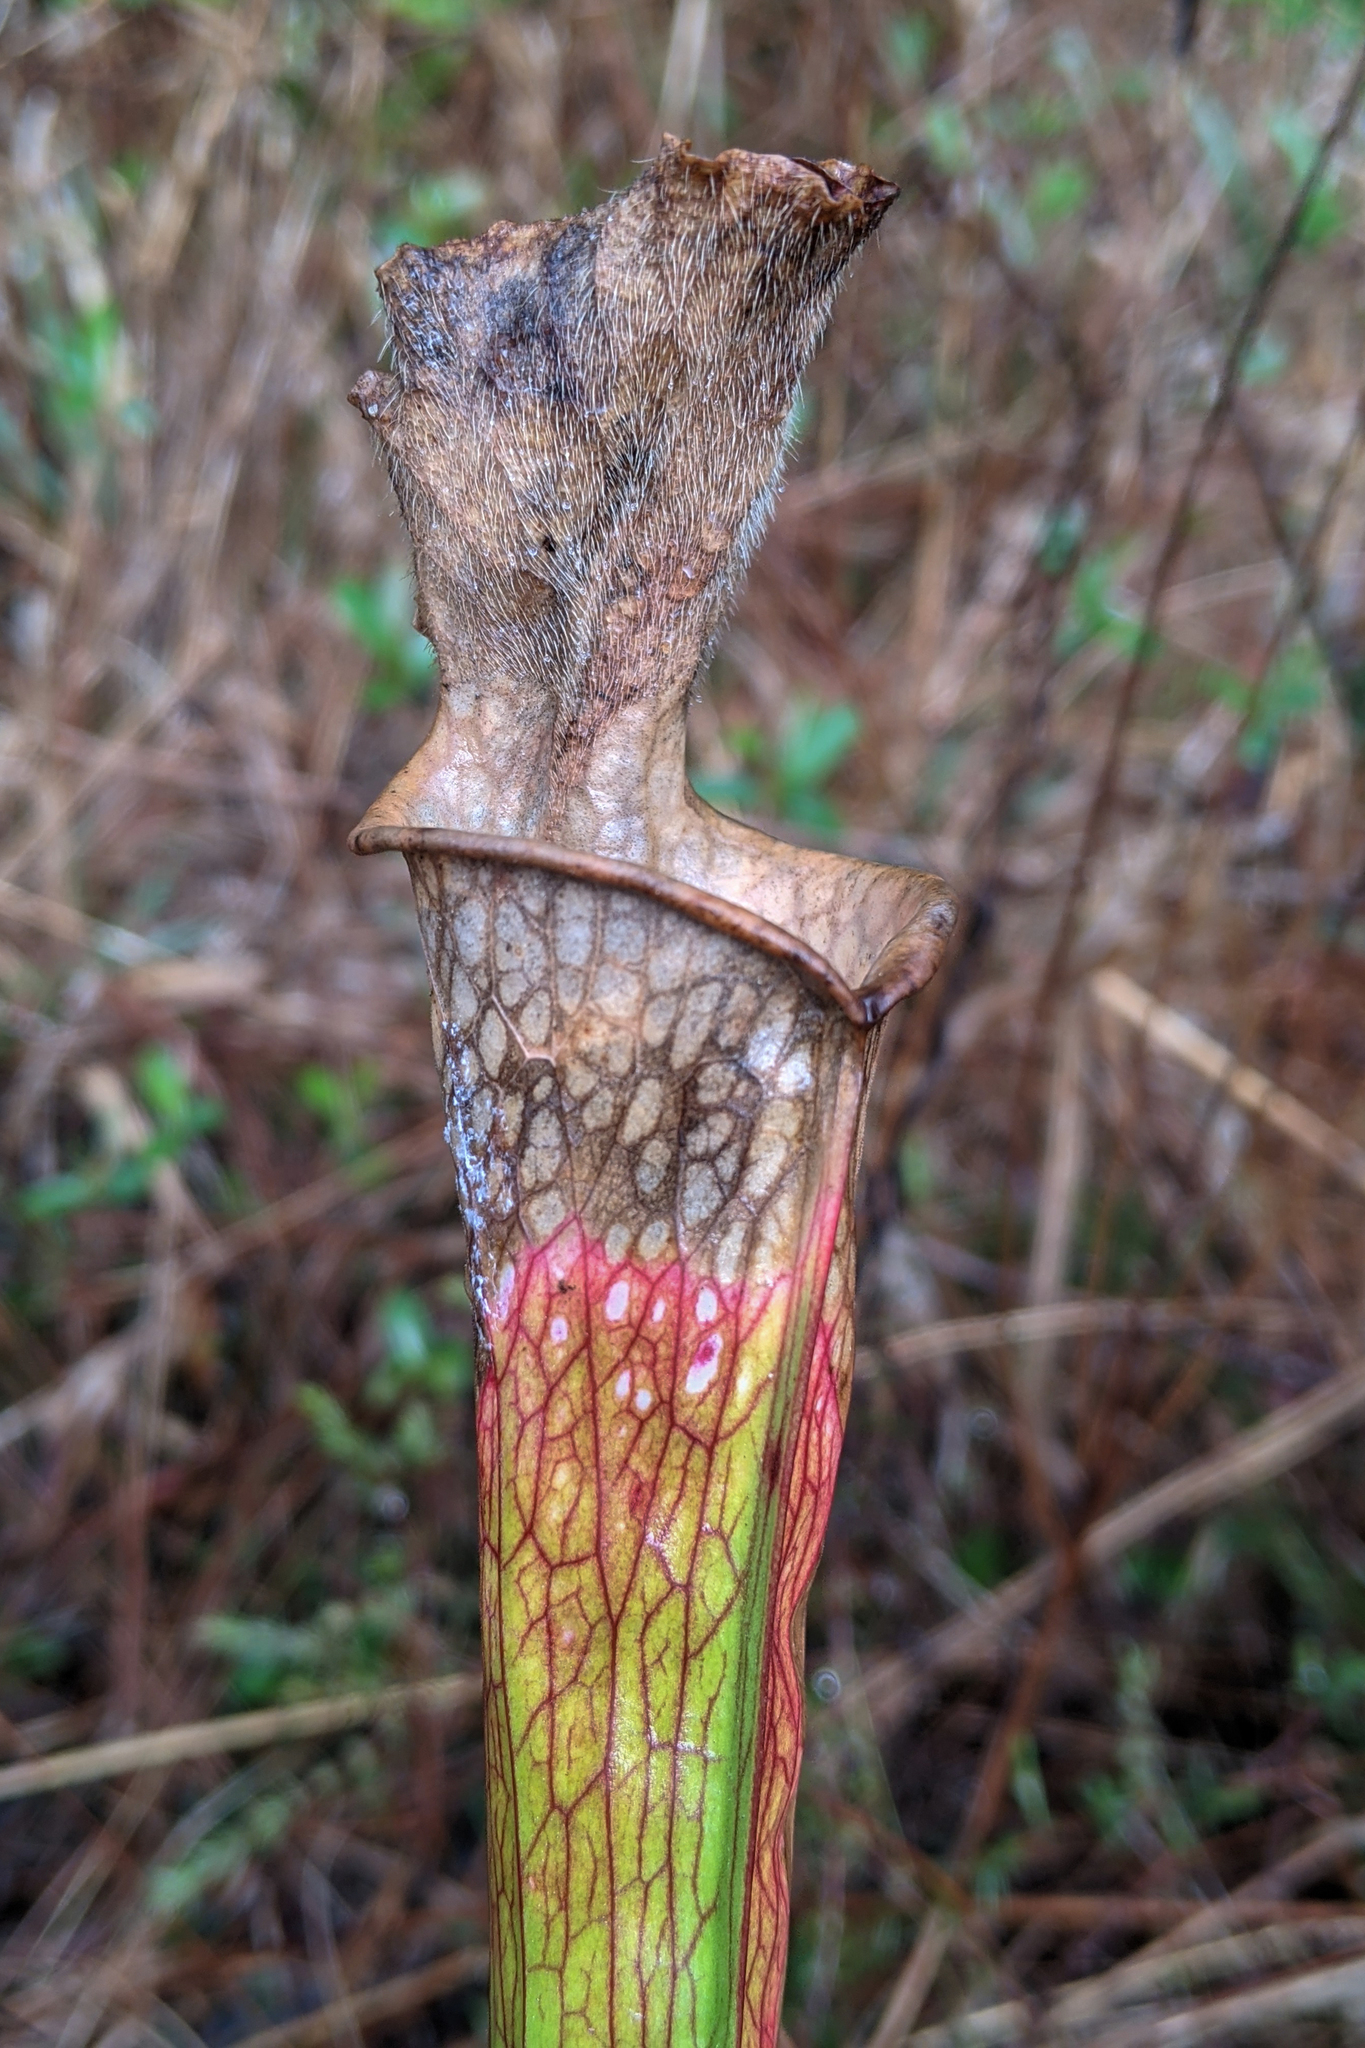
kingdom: Plantae
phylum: Tracheophyta
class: Magnoliopsida
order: Ericales
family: Sarraceniaceae
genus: Sarracenia
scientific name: Sarracenia leucophylla
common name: Purple trumpetleaf
